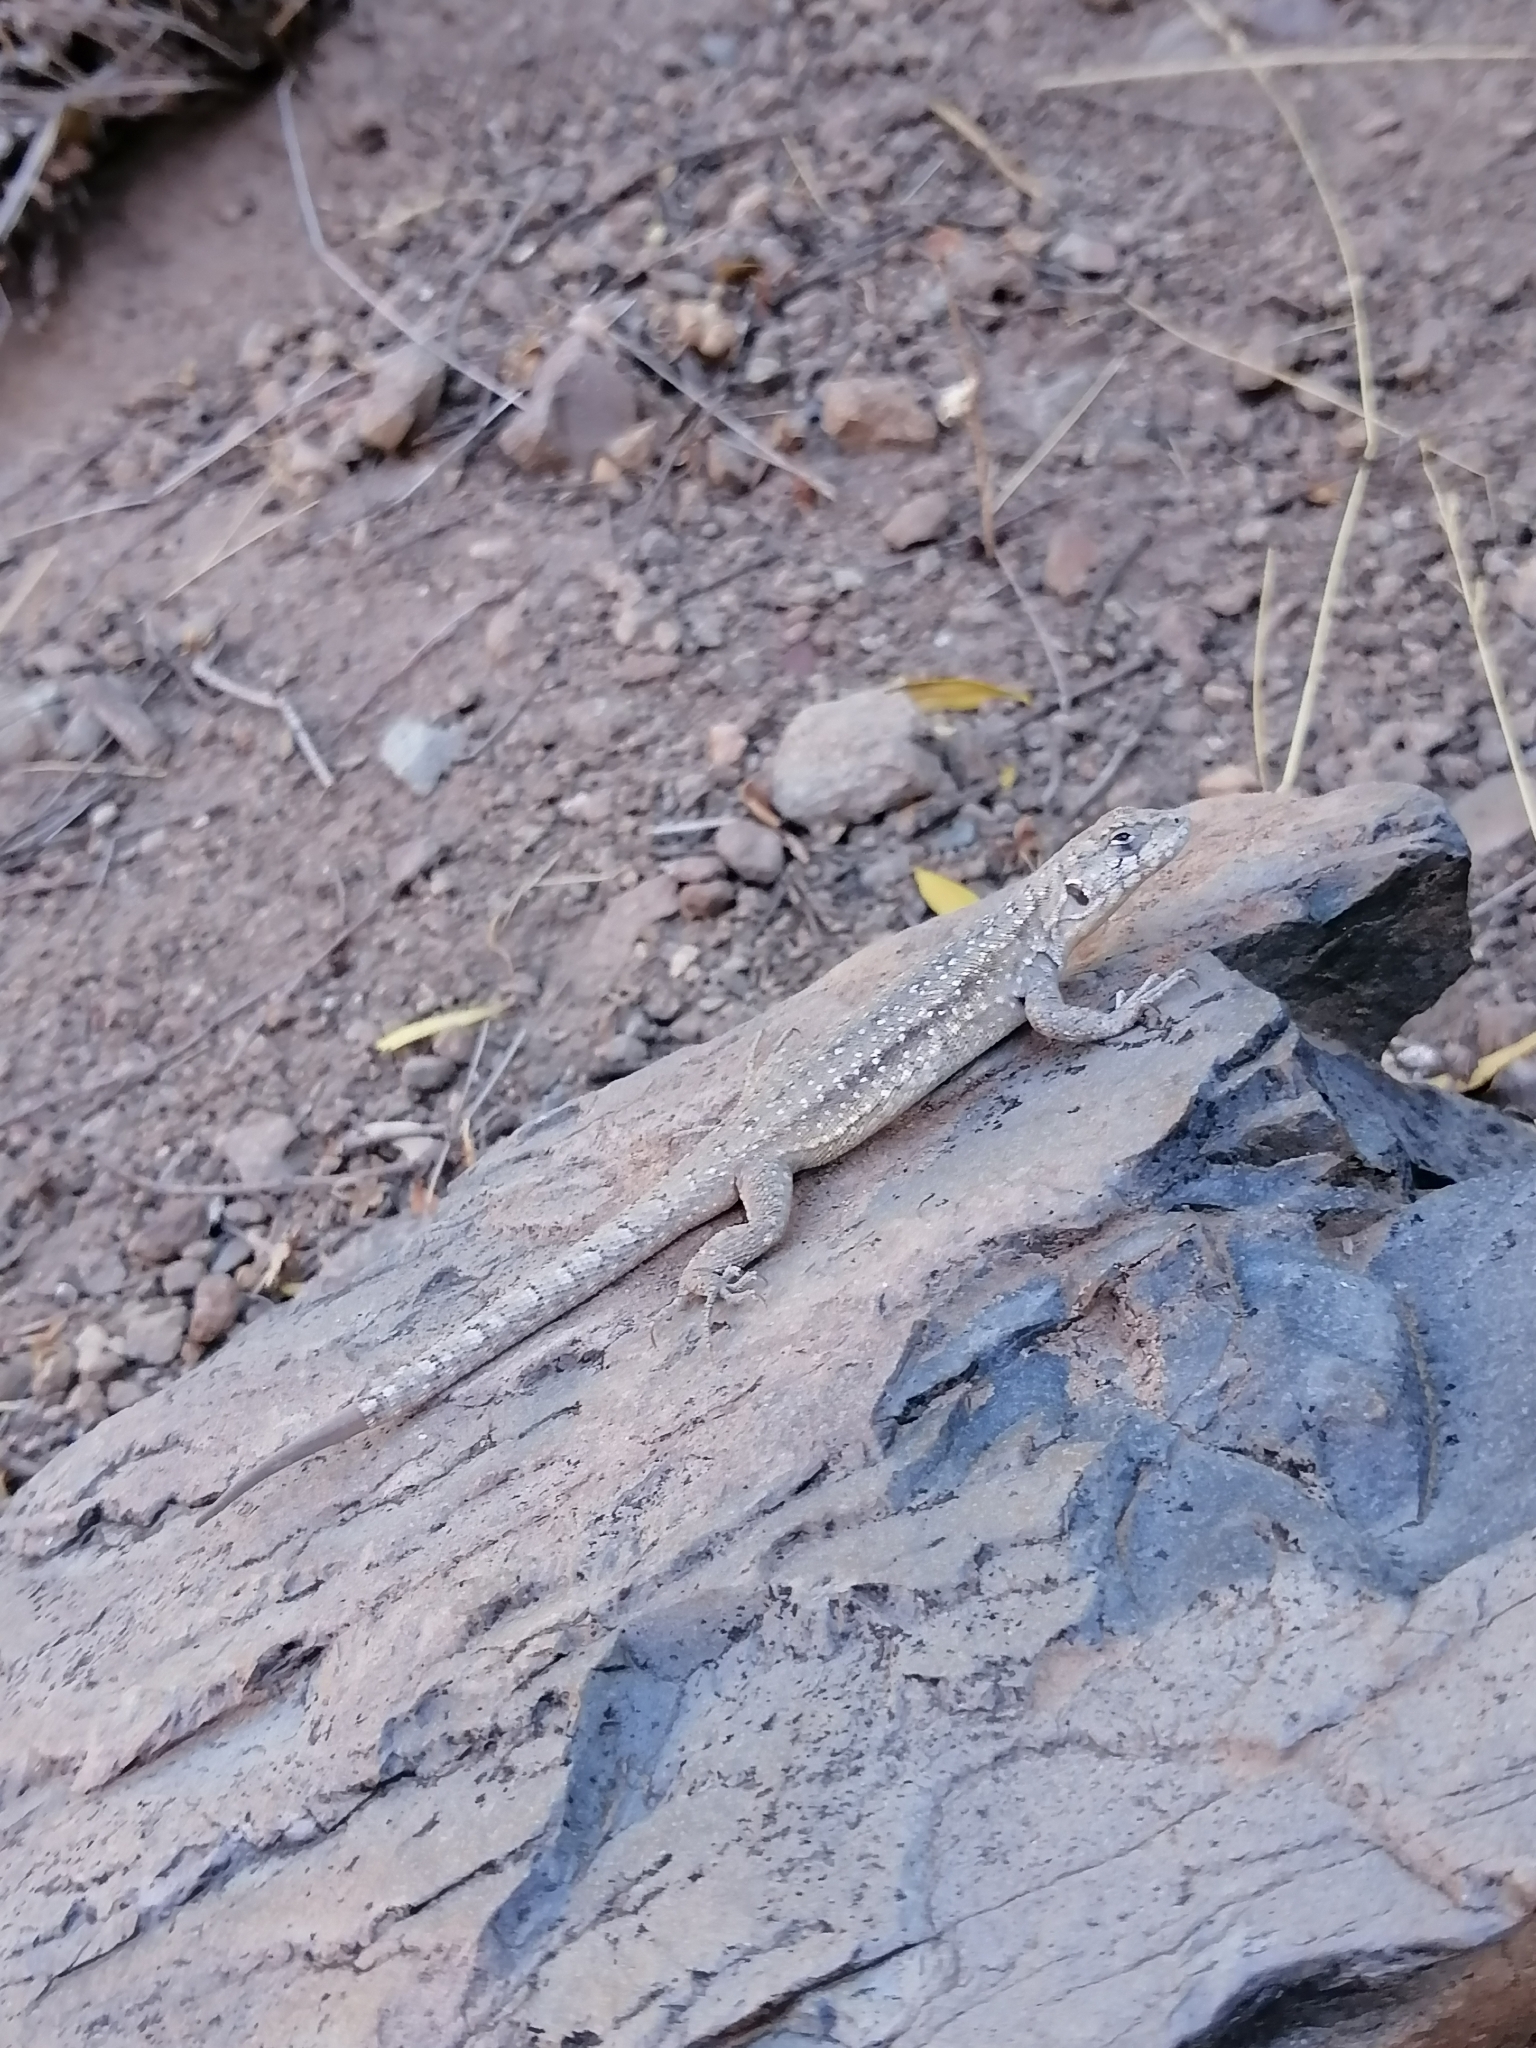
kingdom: Animalia
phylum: Chordata
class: Squamata
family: Liolaemidae
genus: Liolaemus
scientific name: Liolaemus monticola
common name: Peak tree iguana
